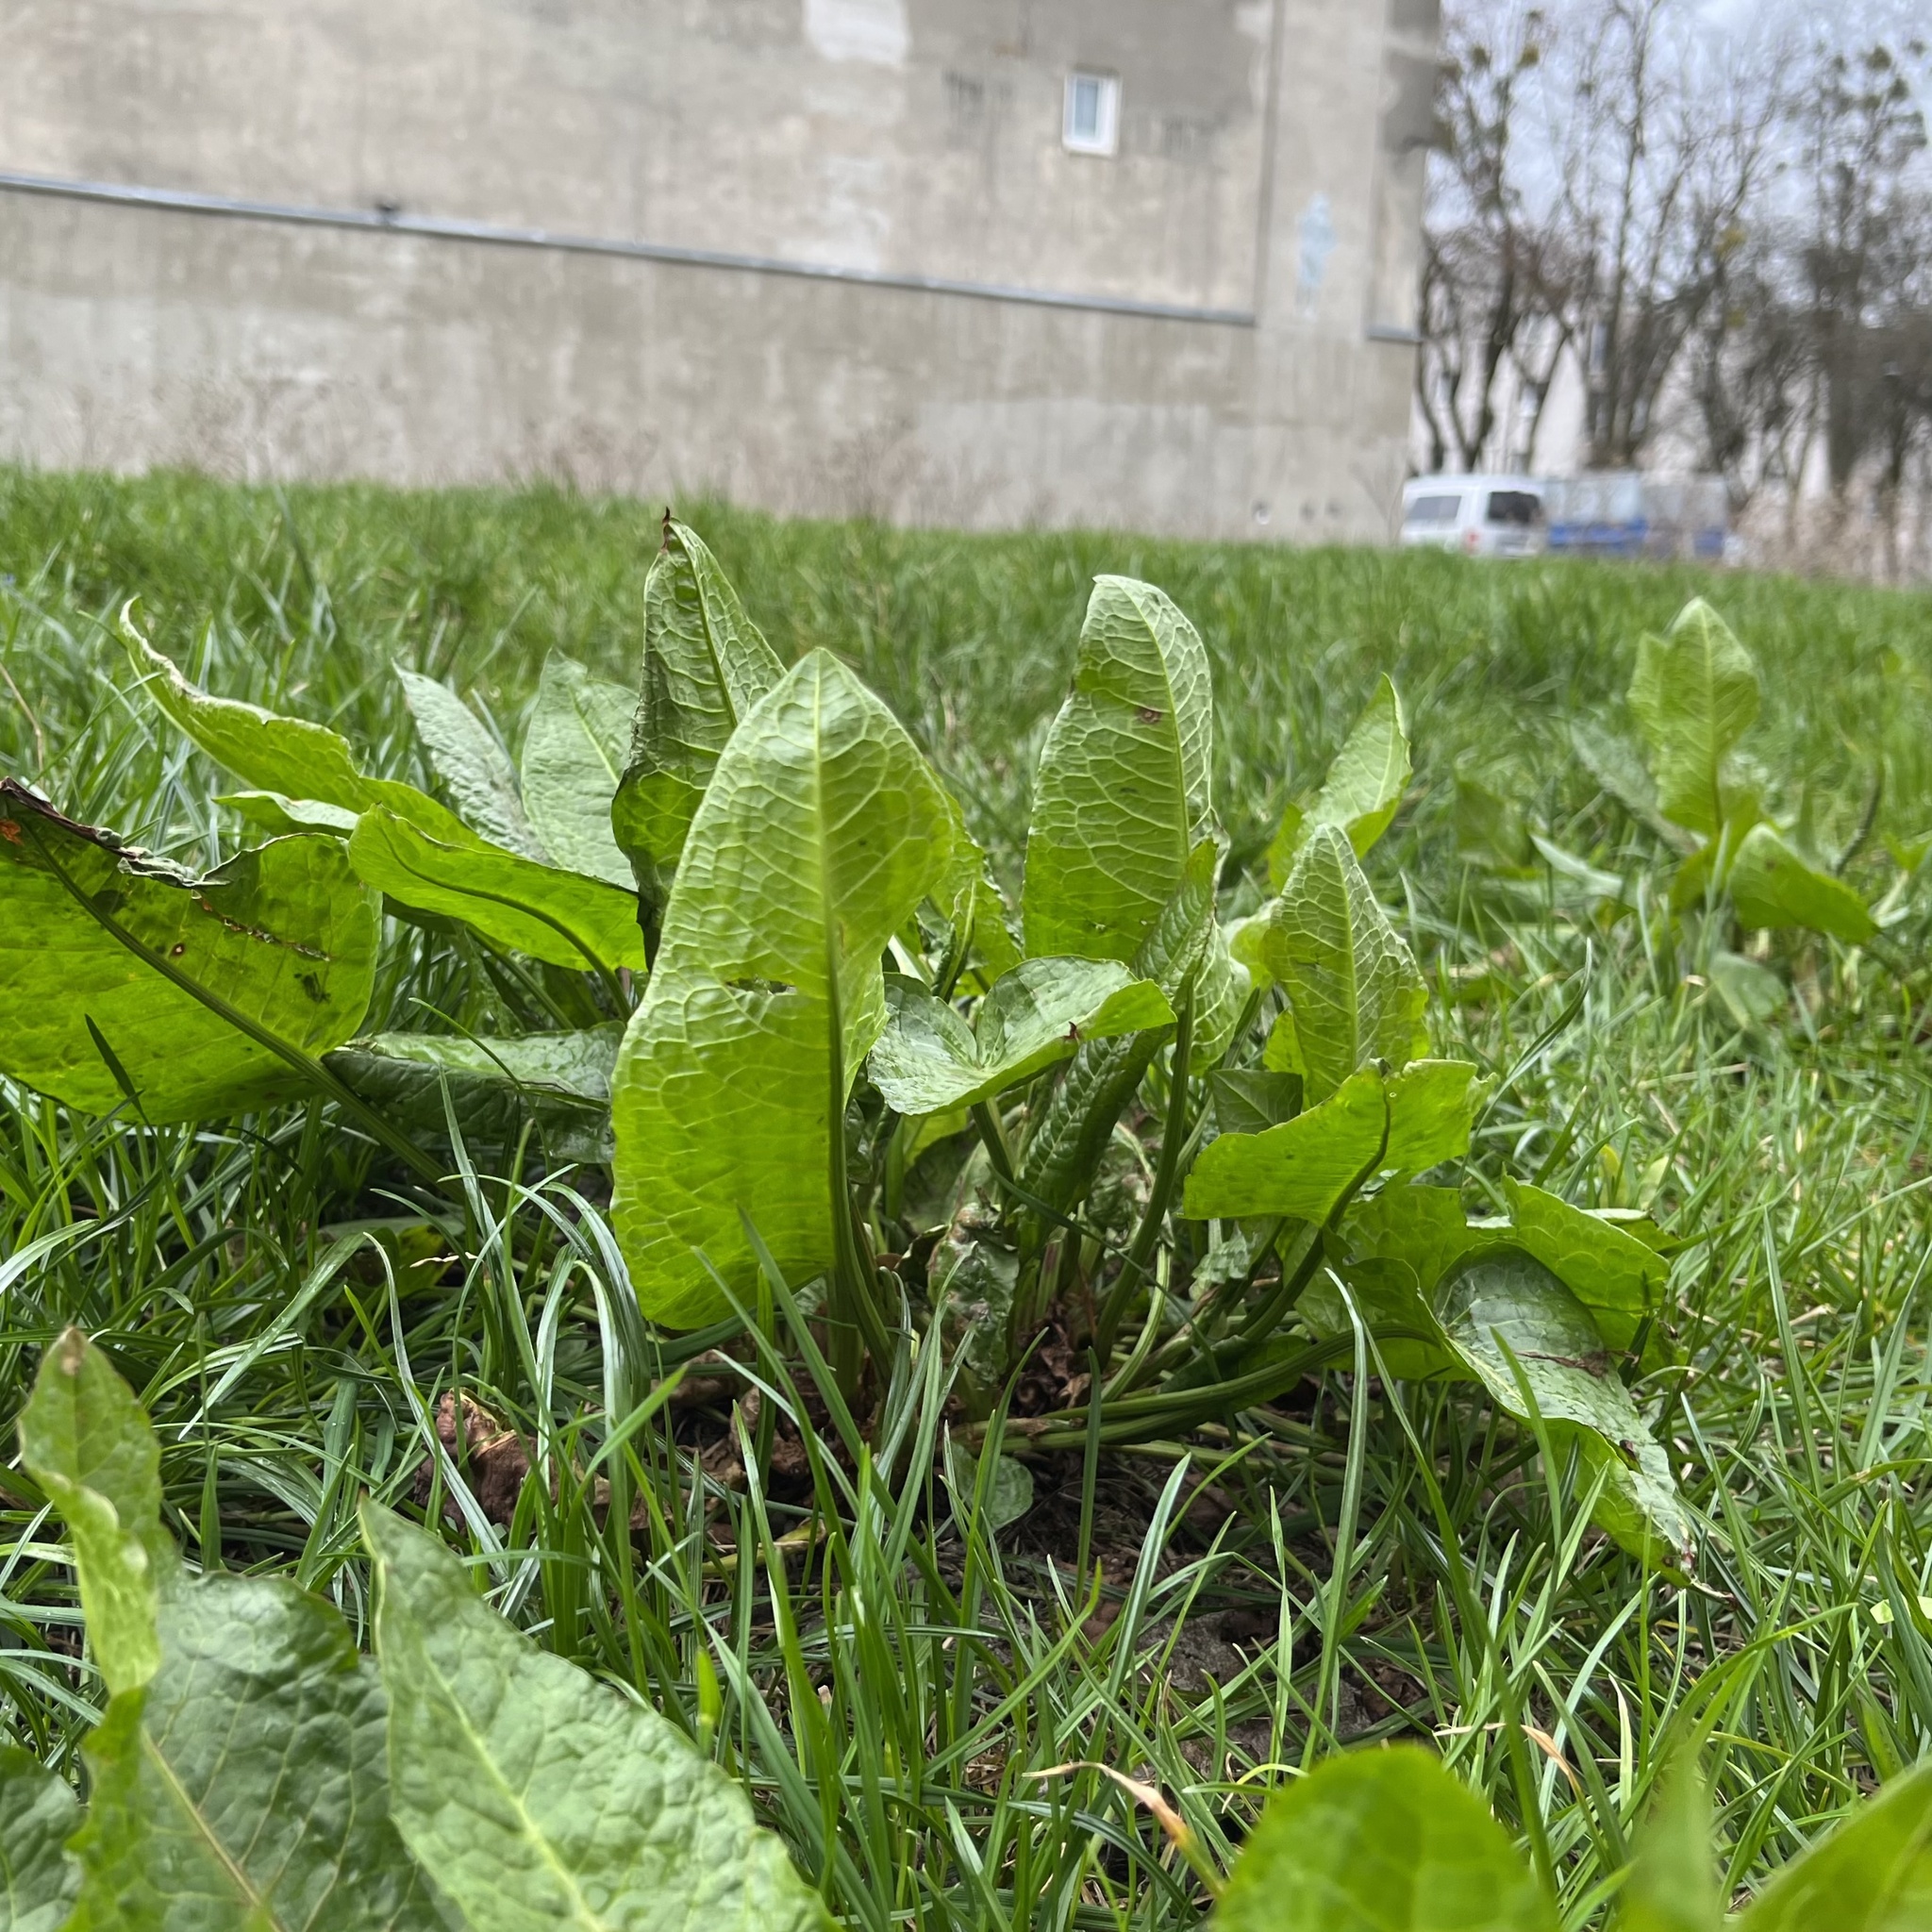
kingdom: Plantae
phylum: Tracheophyta
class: Magnoliopsida
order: Caryophyllales
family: Polygonaceae
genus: Rumex
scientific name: Rumex obtusifolius
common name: Bitter dock
